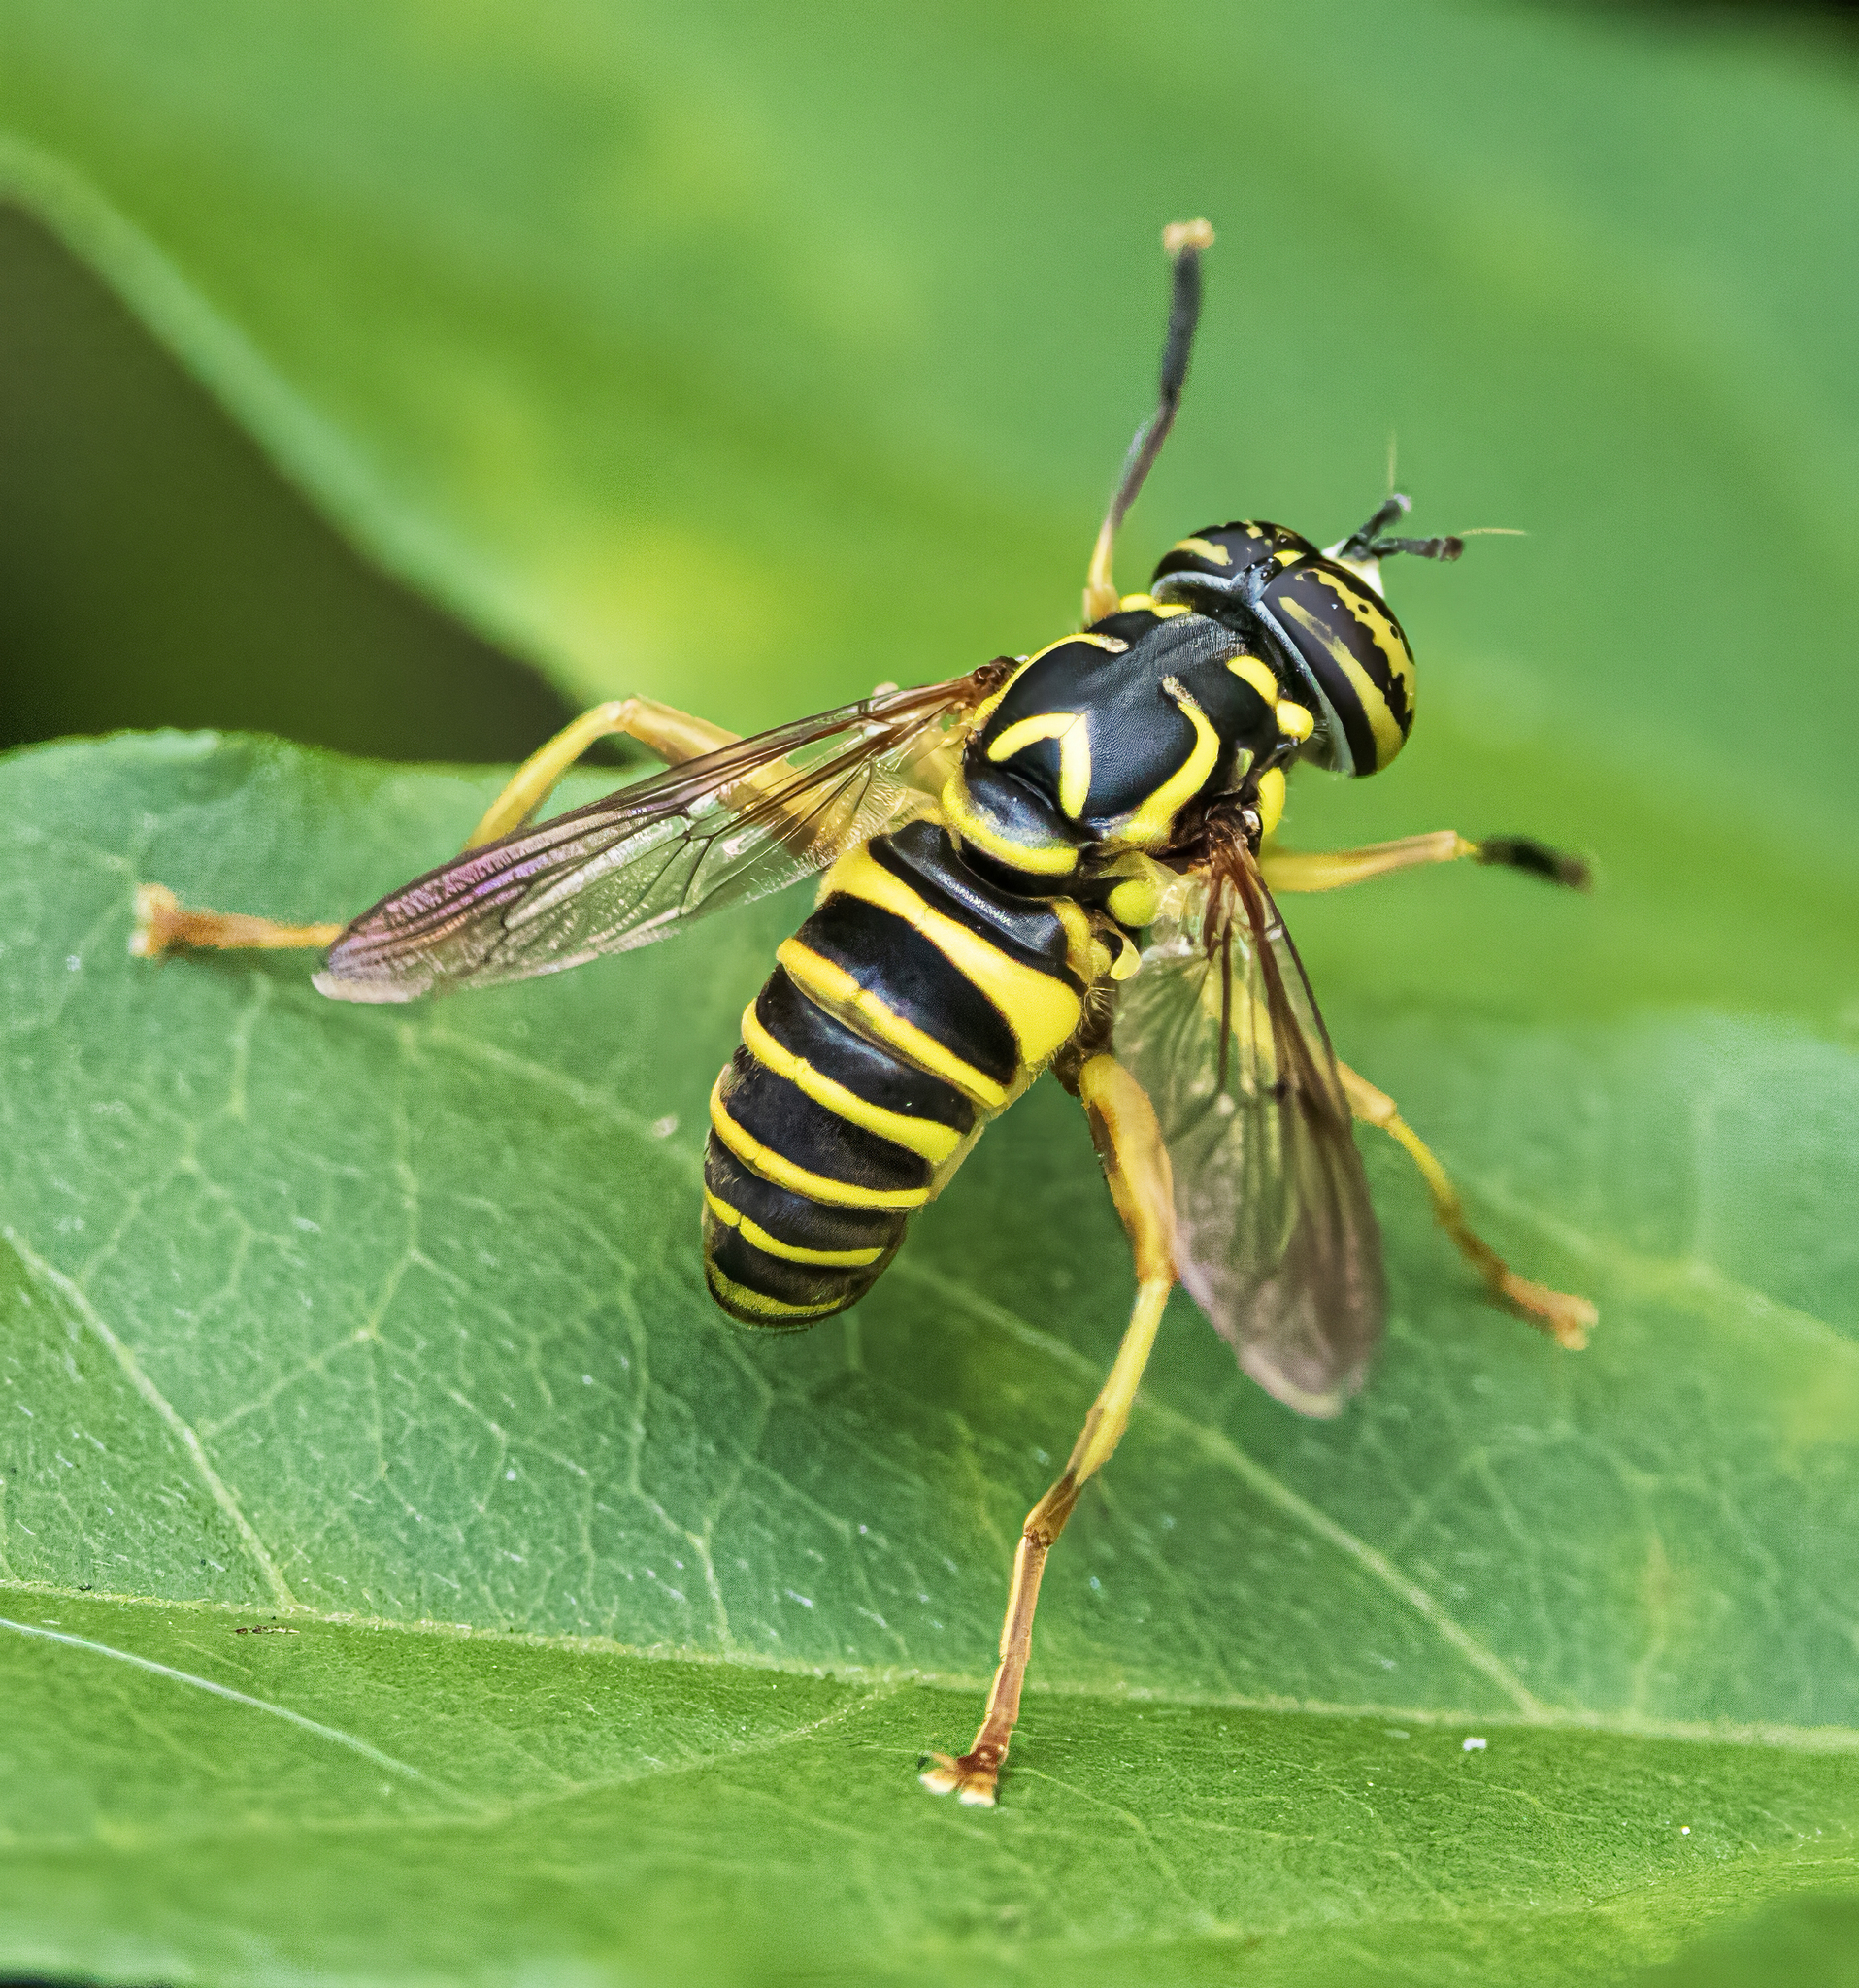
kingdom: Animalia
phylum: Arthropoda
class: Insecta
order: Diptera
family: Syrphidae
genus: Spilomyia
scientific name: Spilomyia longicornis
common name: Eastern hornet fly
